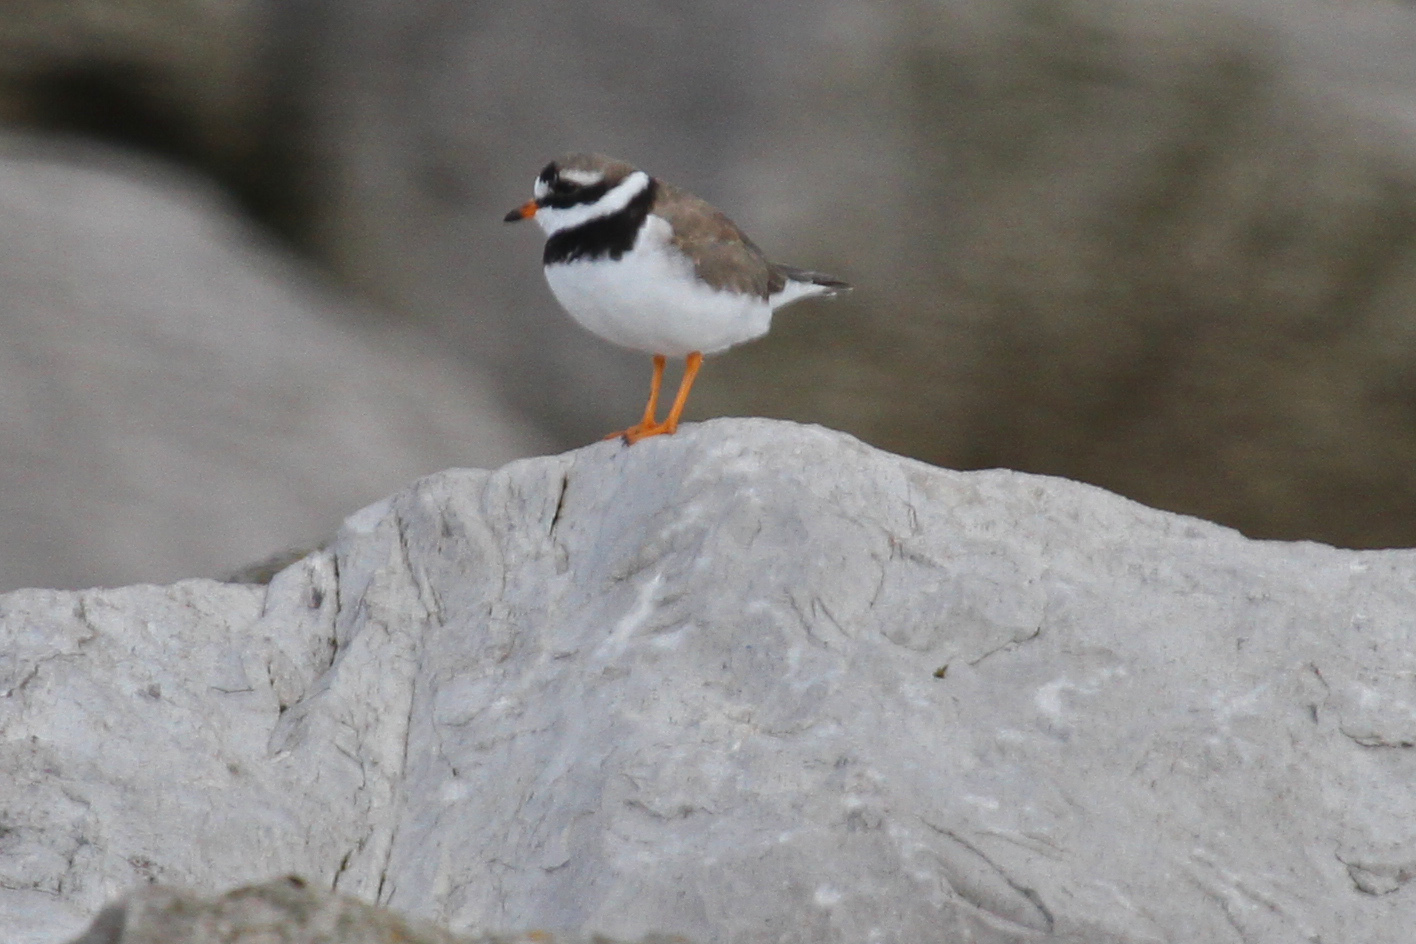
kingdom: Animalia
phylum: Chordata
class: Aves
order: Charadriiformes
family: Charadriidae
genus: Charadrius
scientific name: Charadrius hiaticula
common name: Common ringed plover
